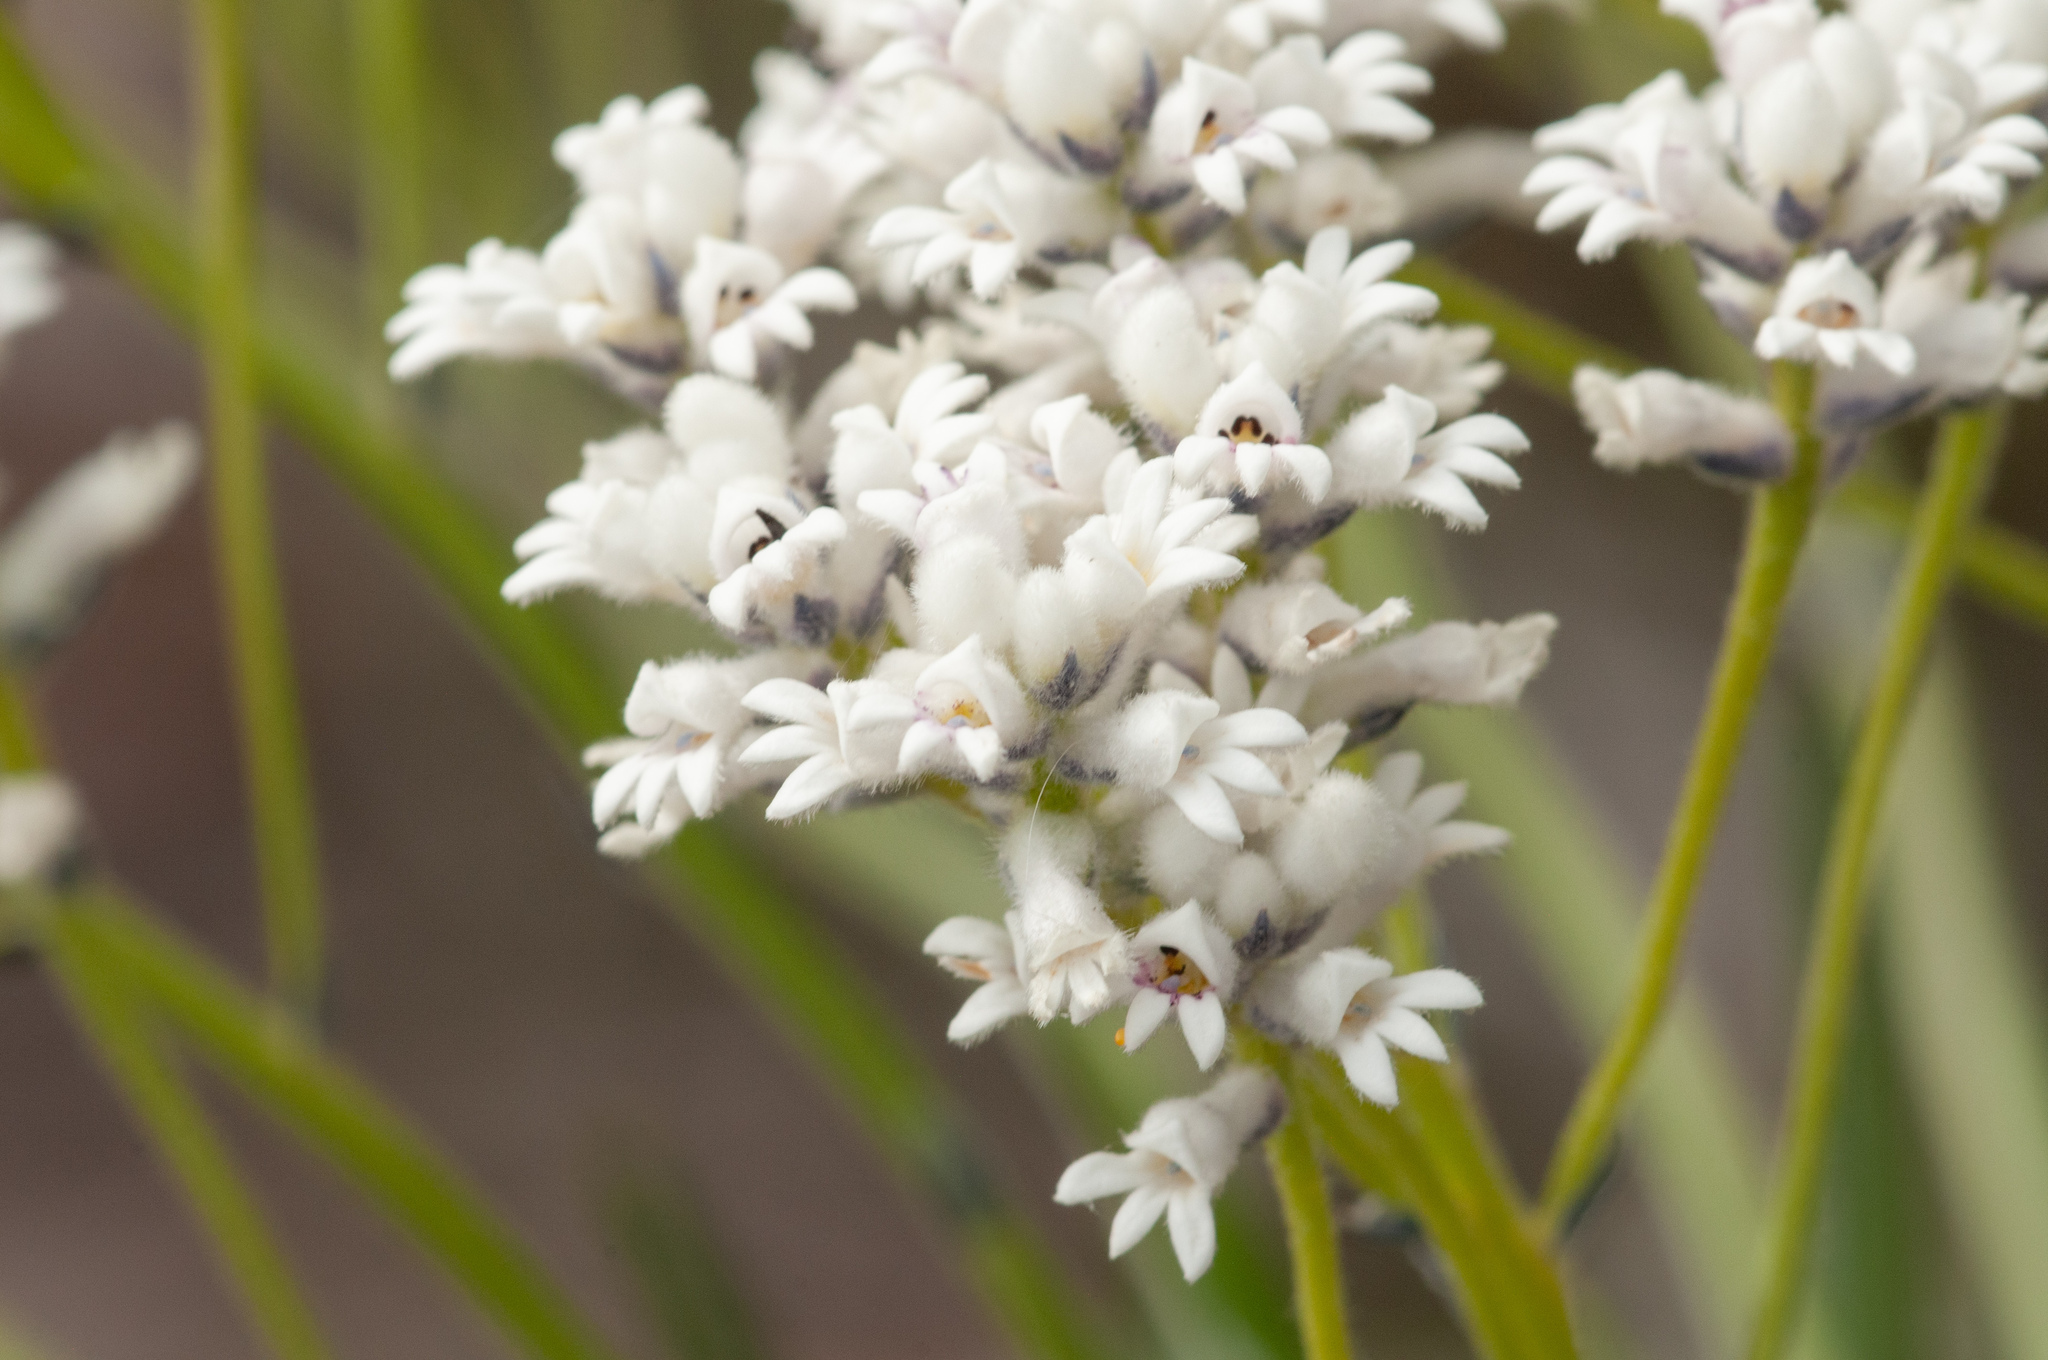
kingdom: Plantae
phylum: Tracheophyta
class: Magnoliopsida
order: Proteales
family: Proteaceae
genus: Conospermum
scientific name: Conospermum mitchellii
